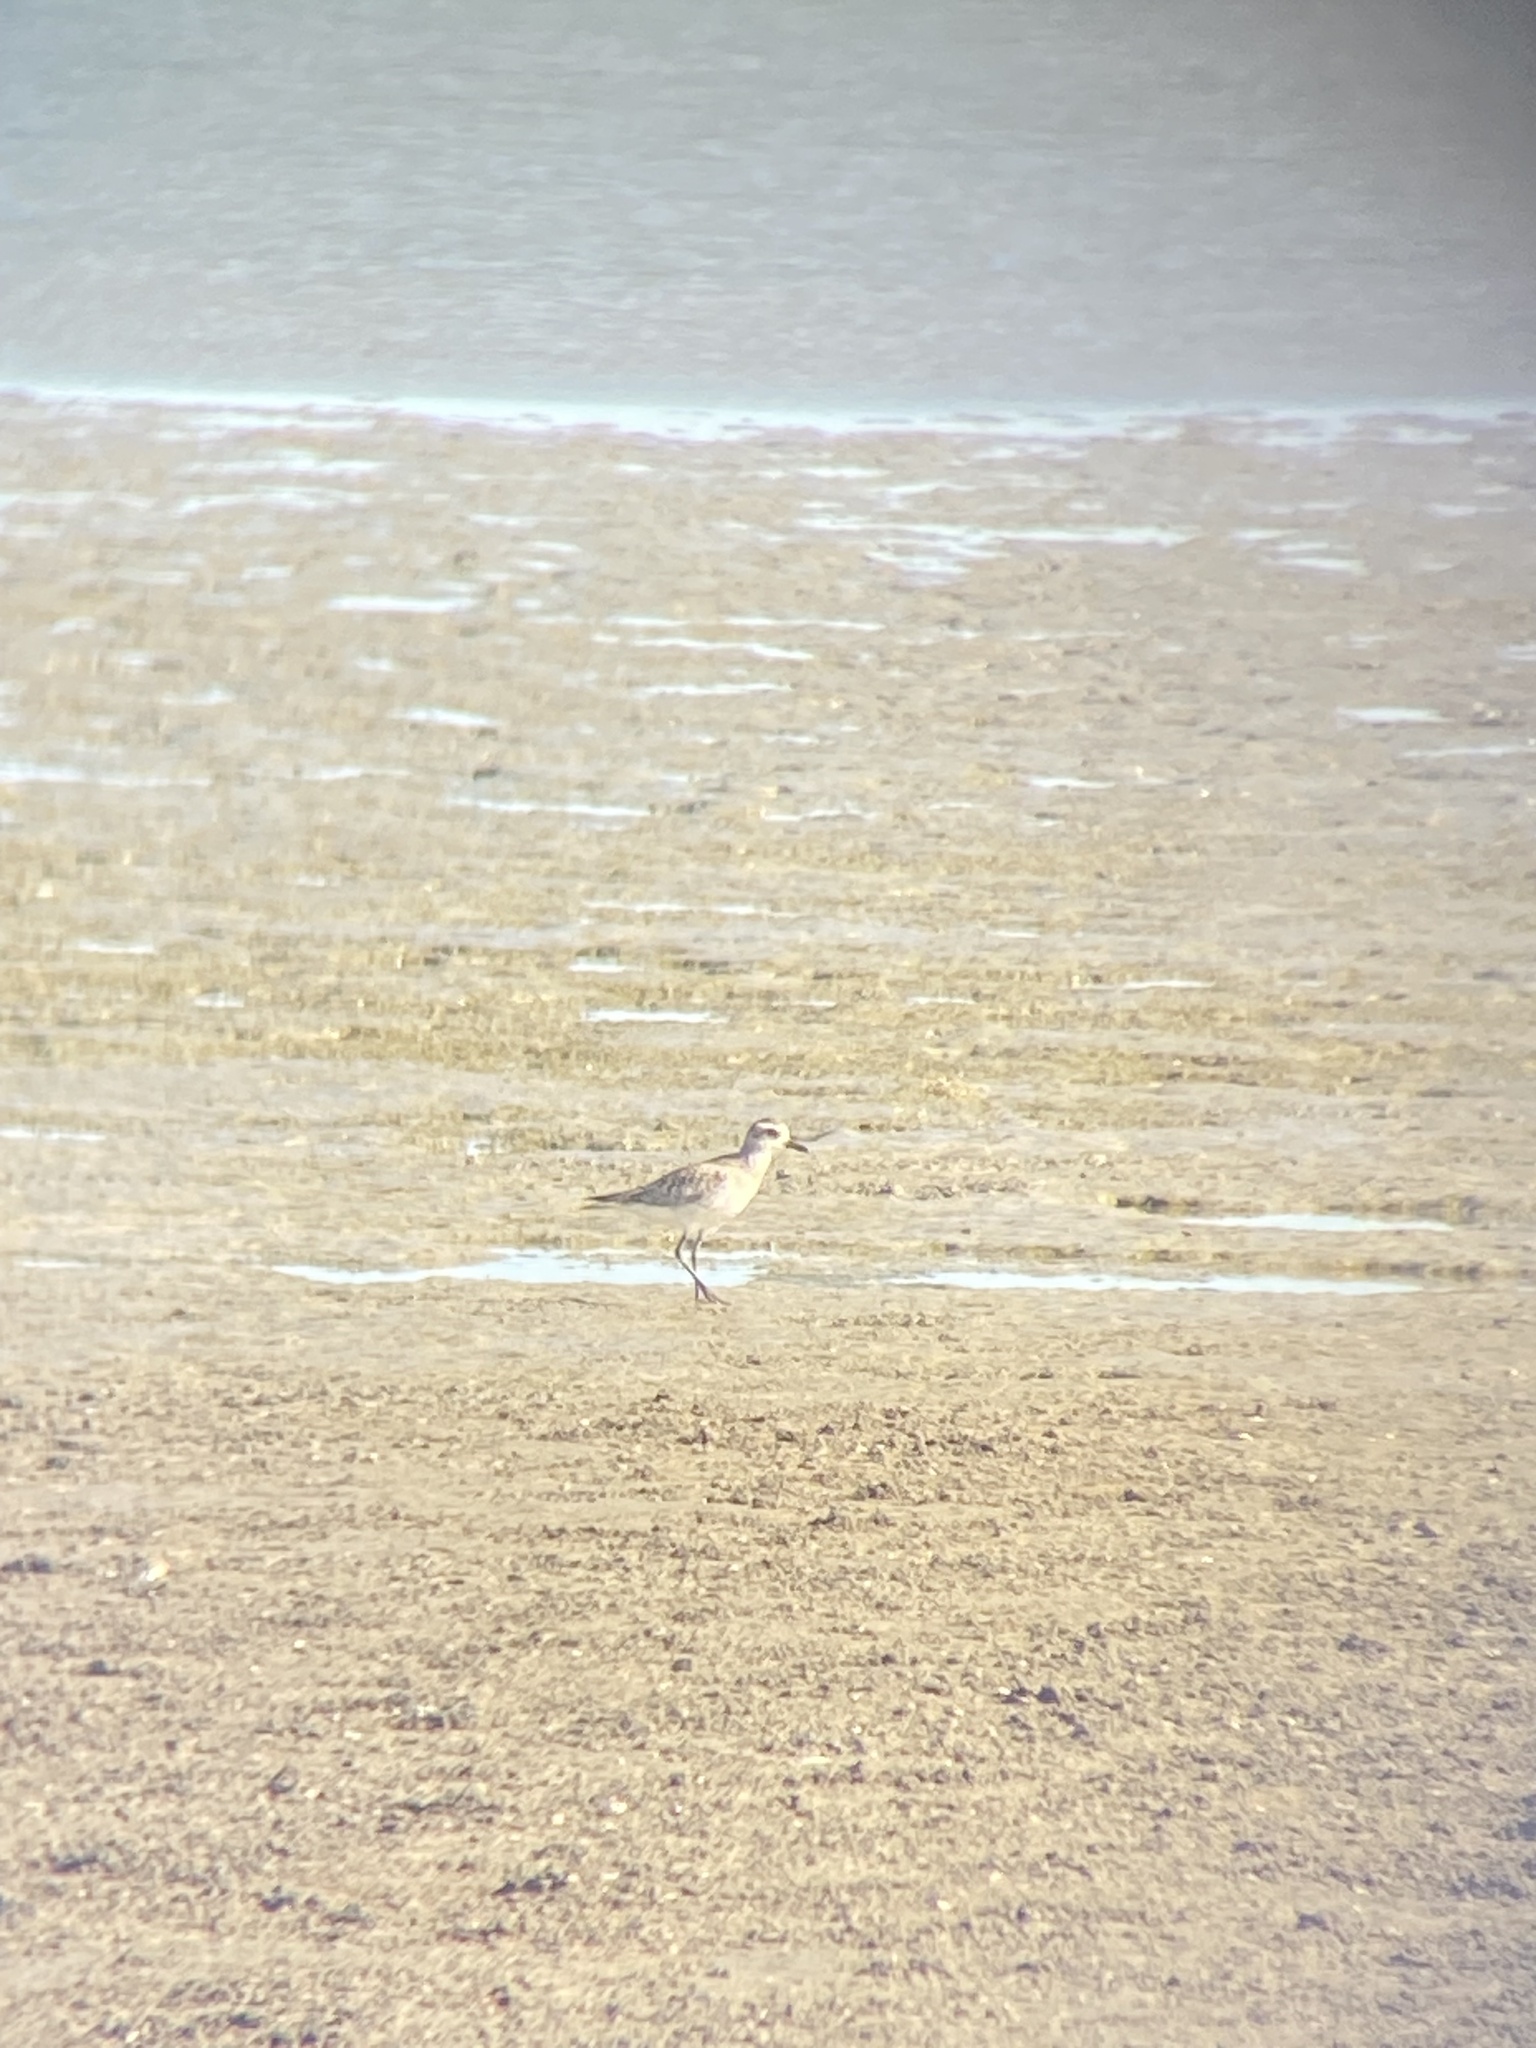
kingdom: Animalia
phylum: Chordata
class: Aves
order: Charadriiformes
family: Charadriidae
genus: Pluvialis
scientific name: Pluvialis squatarola
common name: Grey plover
